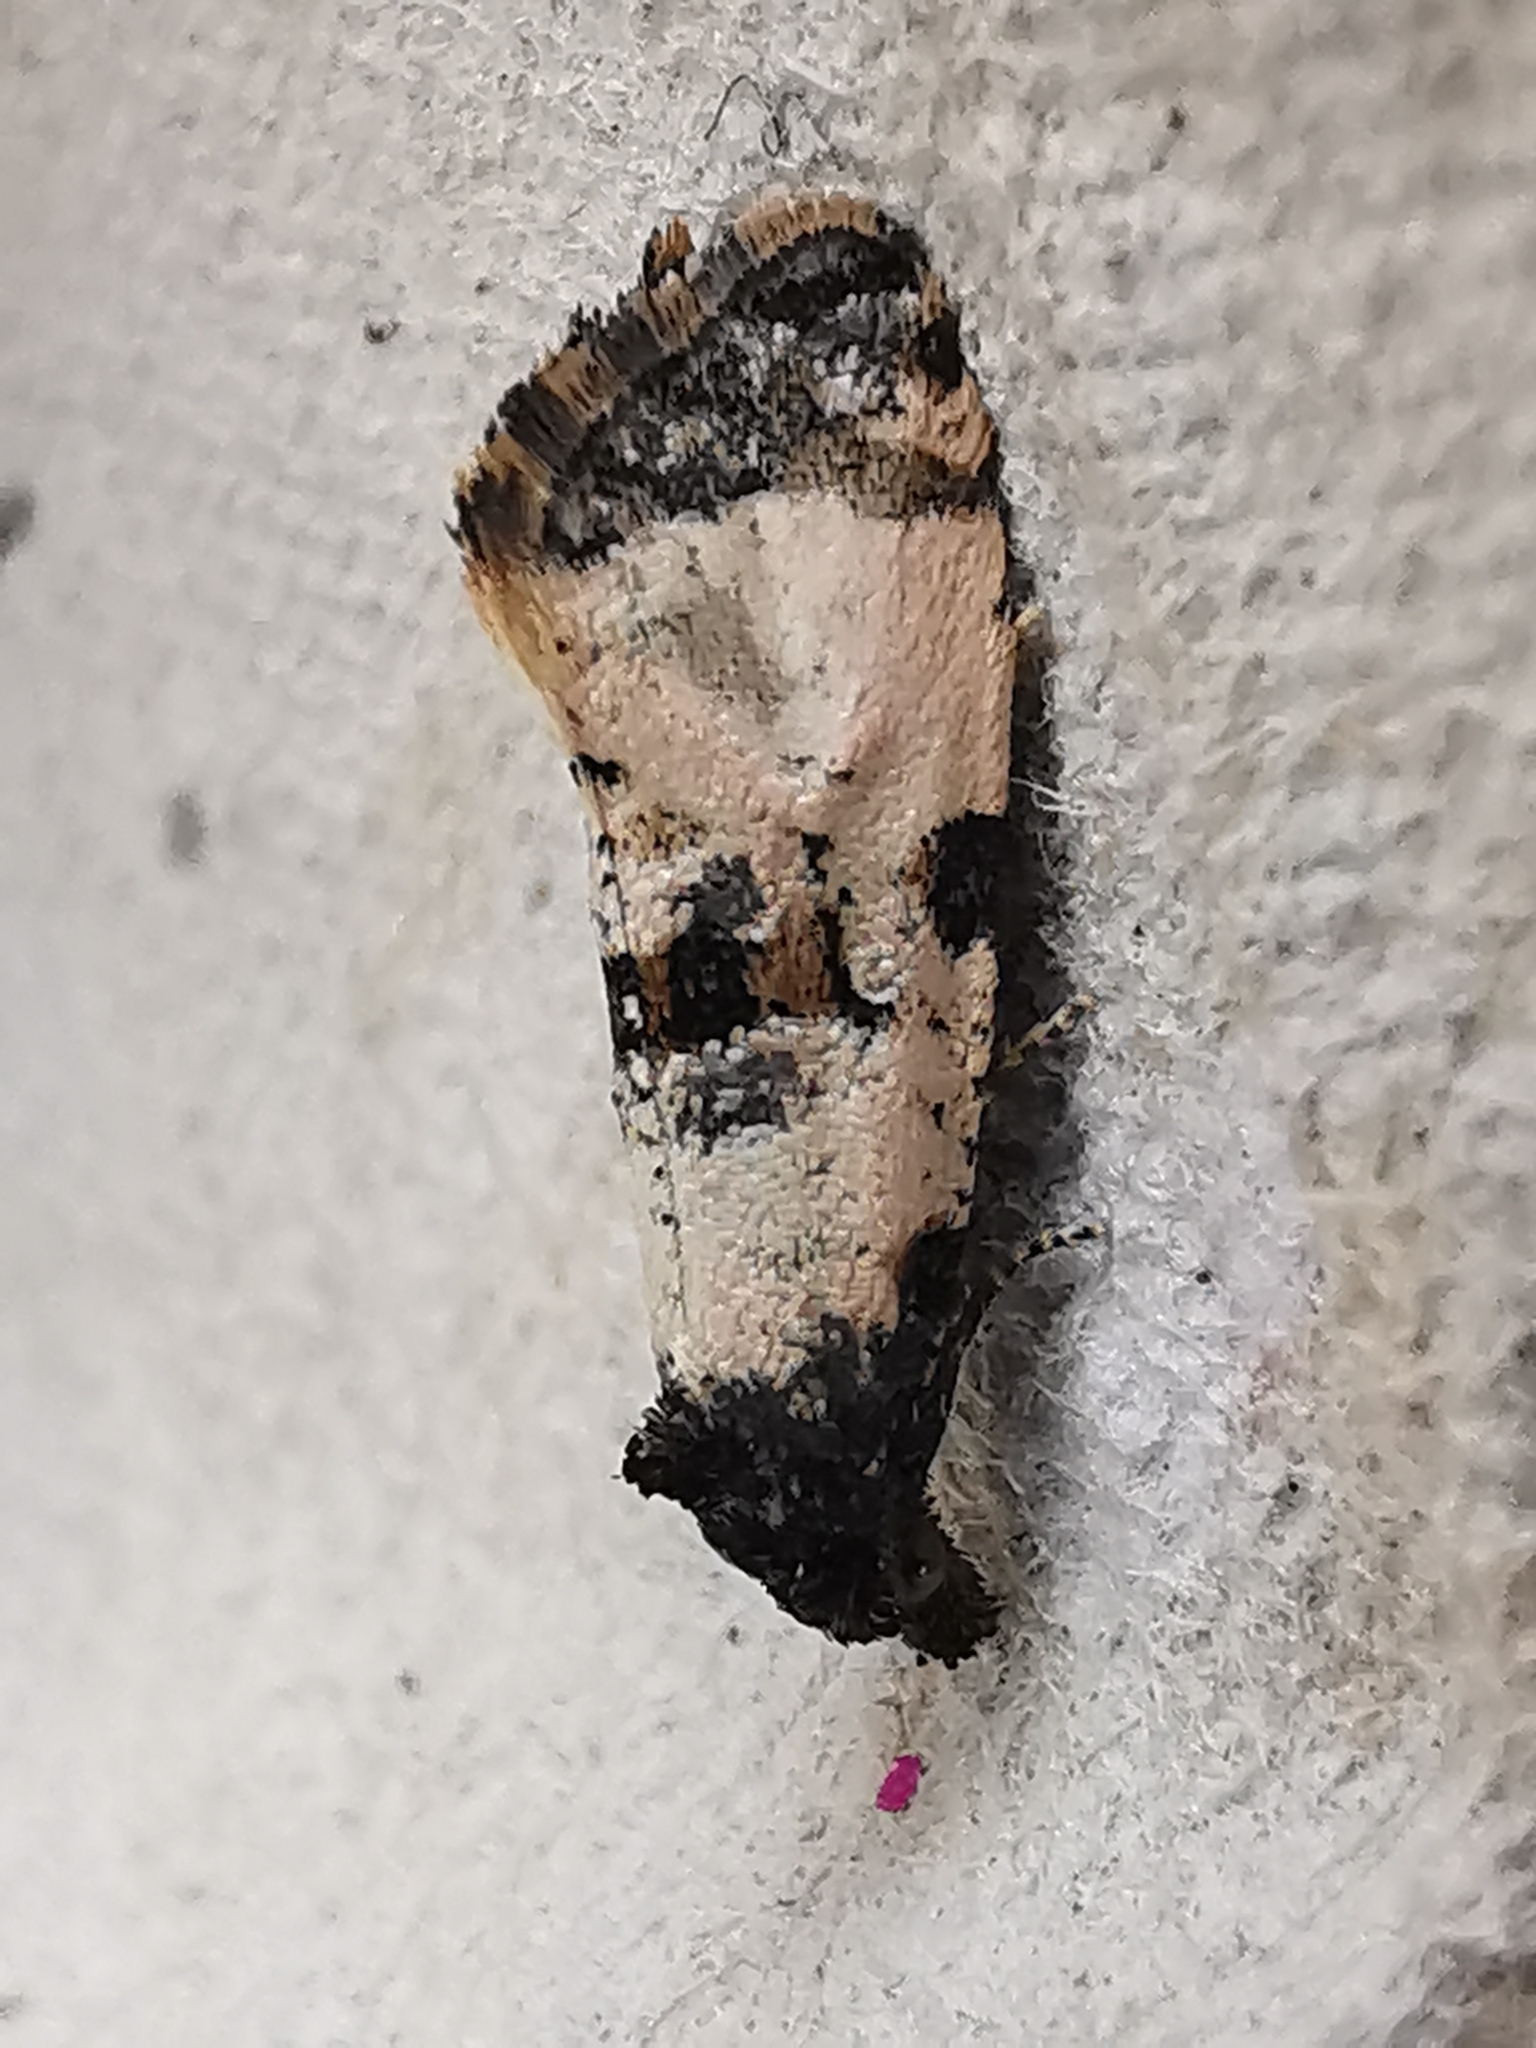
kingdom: Animalia
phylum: Arthropoda
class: Insecta
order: Lepidoptera
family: Tortricidae
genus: Cochylis
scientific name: Cochylis atricapitana
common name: Tortricid moth
